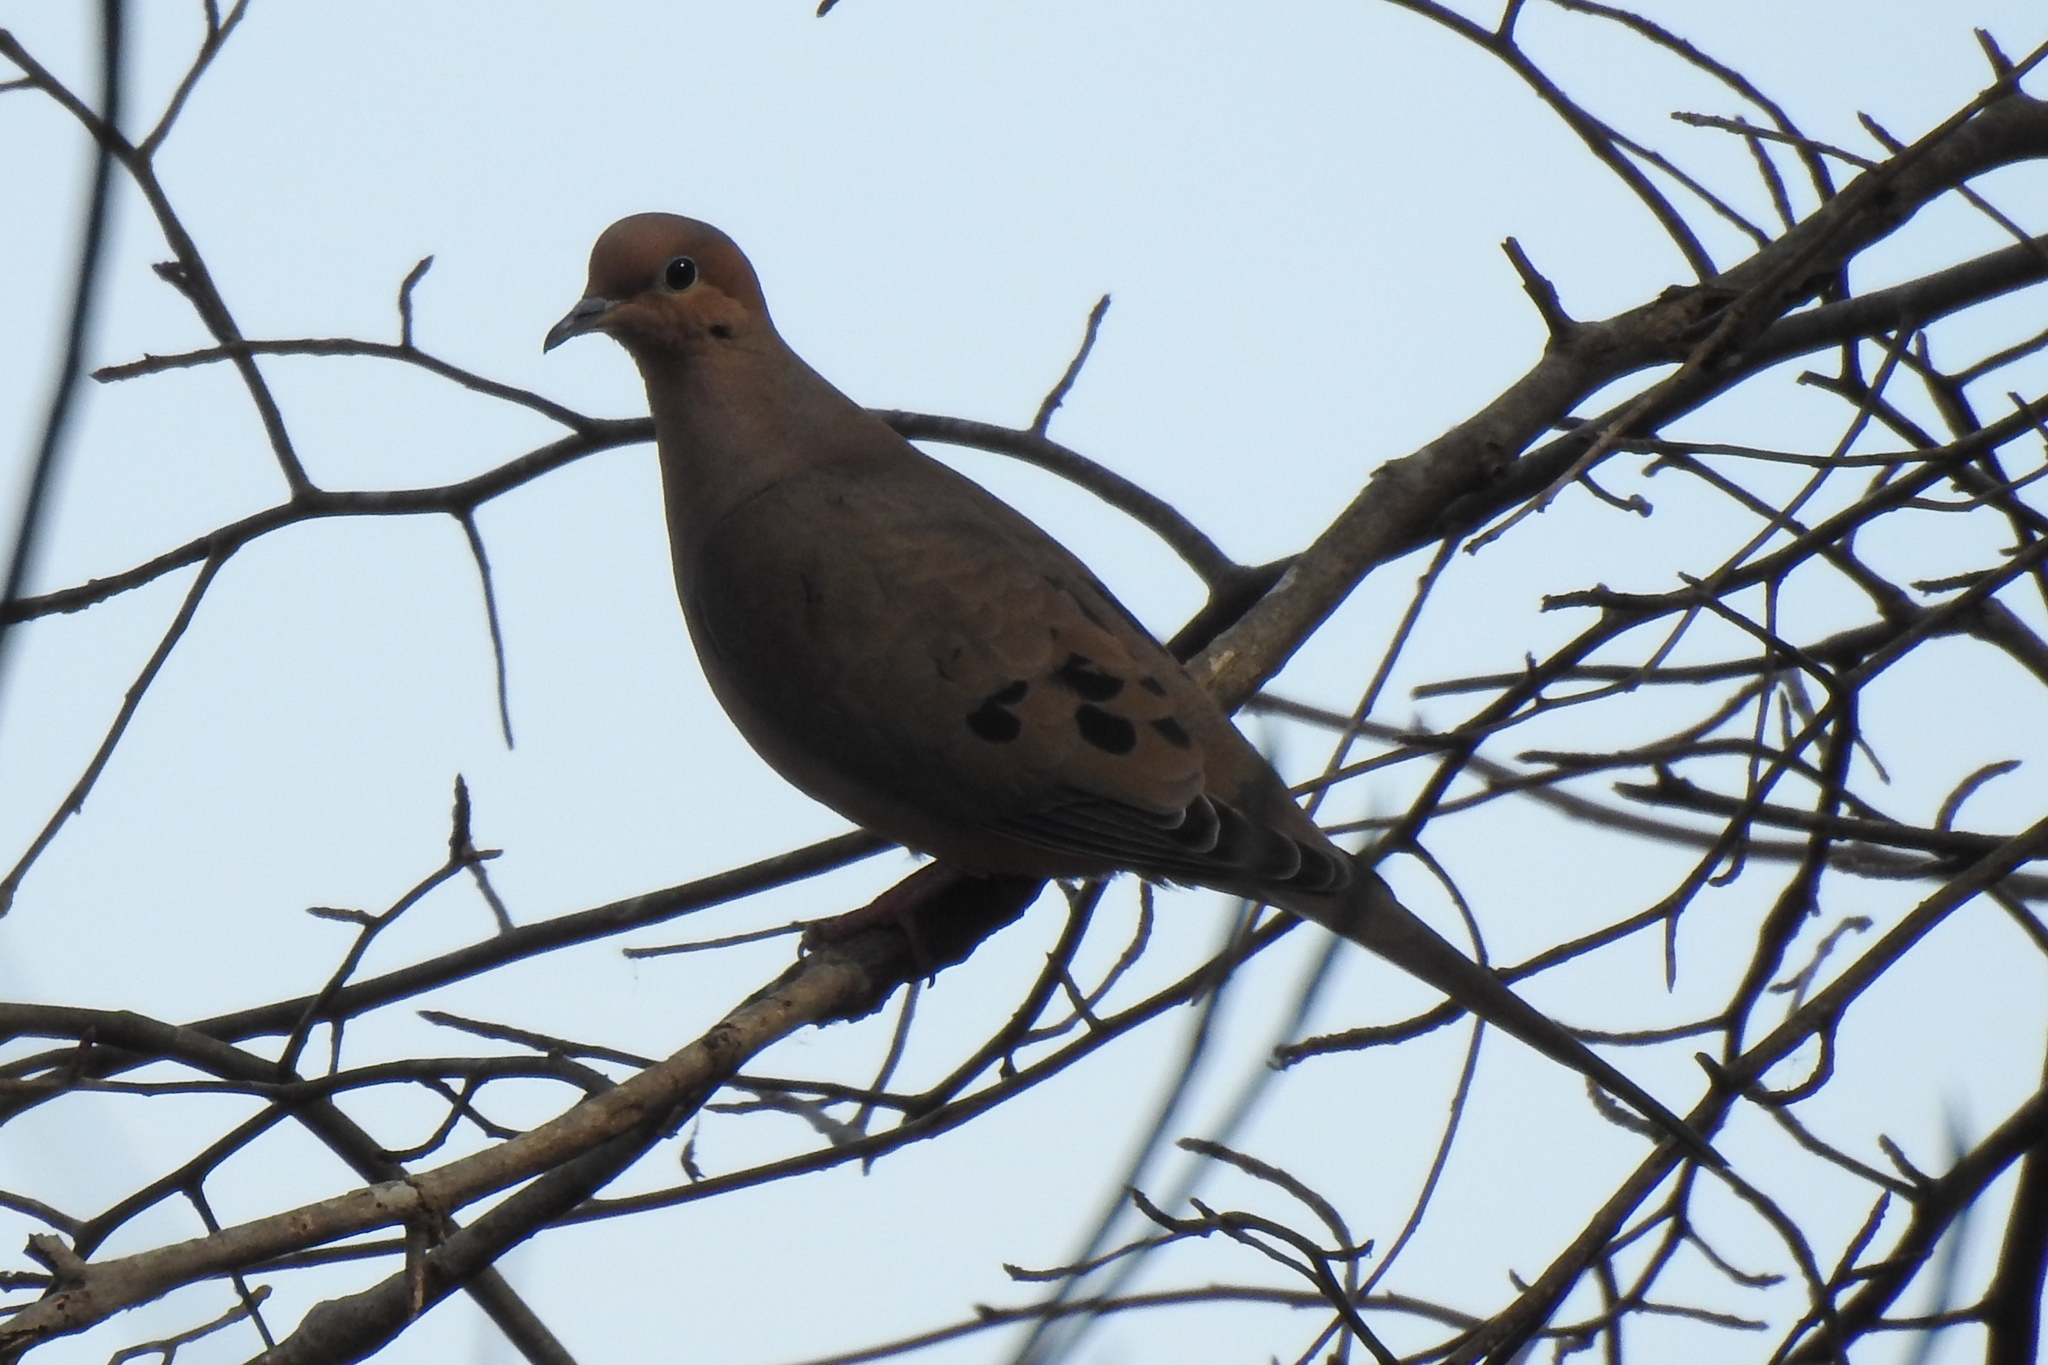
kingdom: Animalia
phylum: Chordata
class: Aves
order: Columbiformes
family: Columbidae
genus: Zenaida
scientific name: Zenaida macroura
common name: Mourning dove
